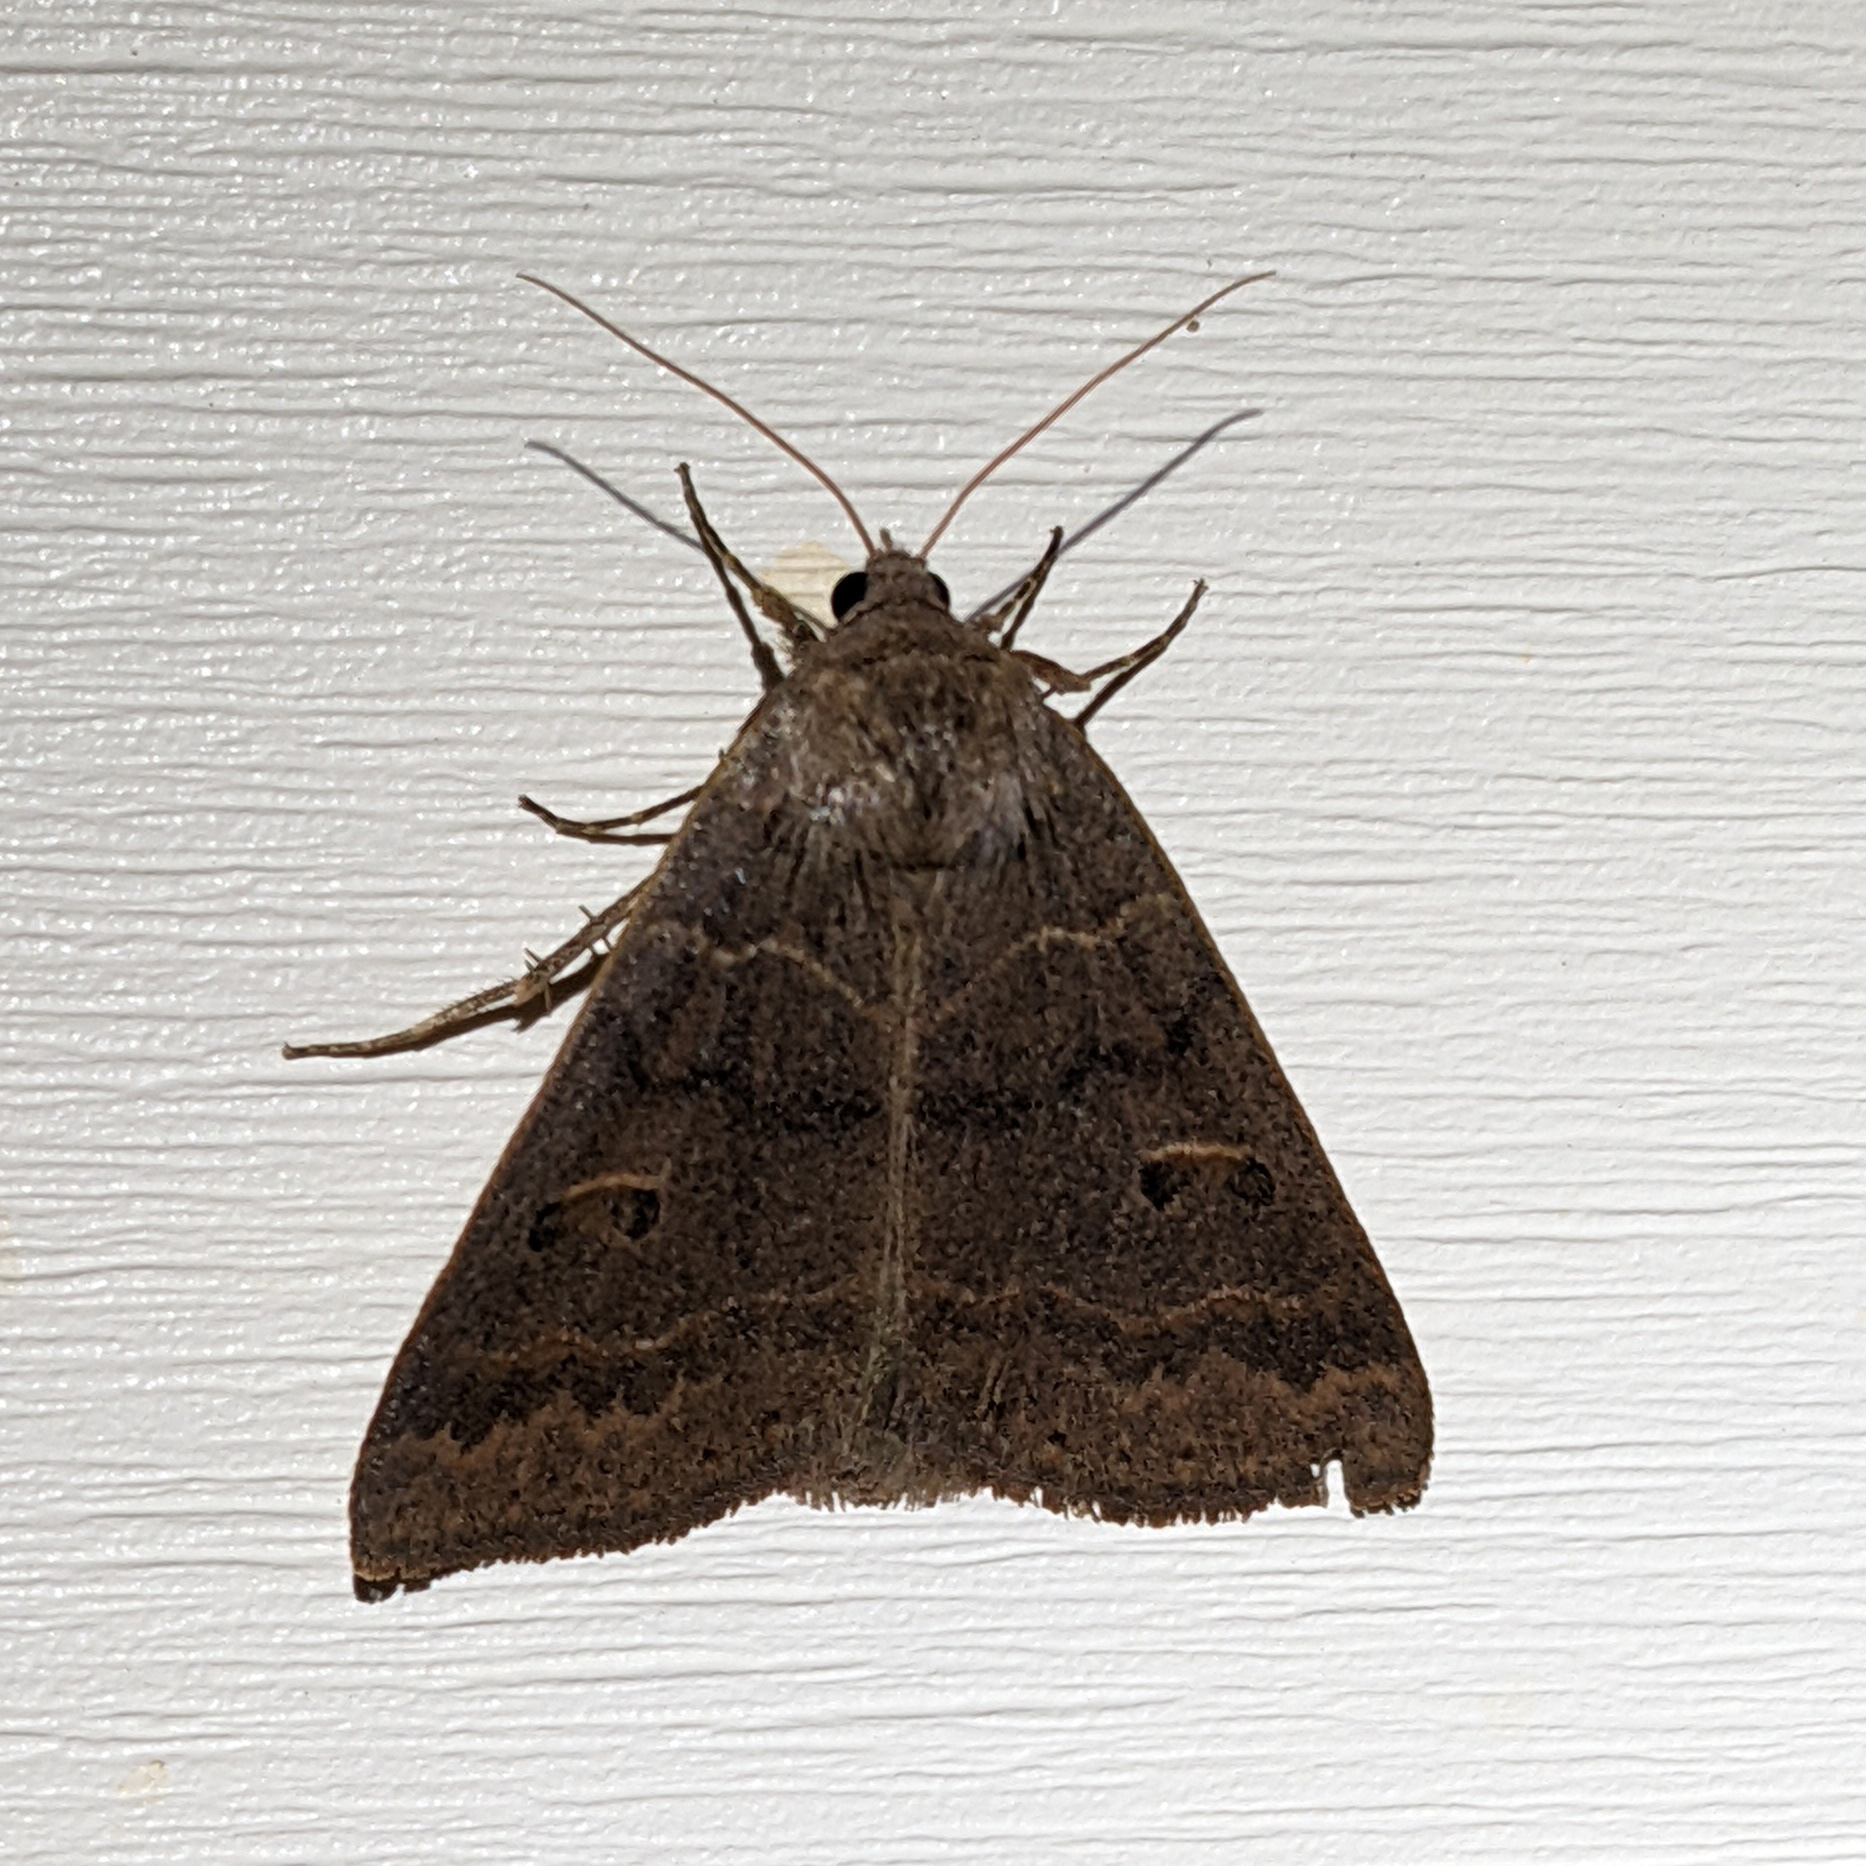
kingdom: Animalia
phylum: Arthropoda
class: Insecta
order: Lepidoptera
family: Erebidae
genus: Phoberia
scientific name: Phoberia atomaris
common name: Common oak moth
